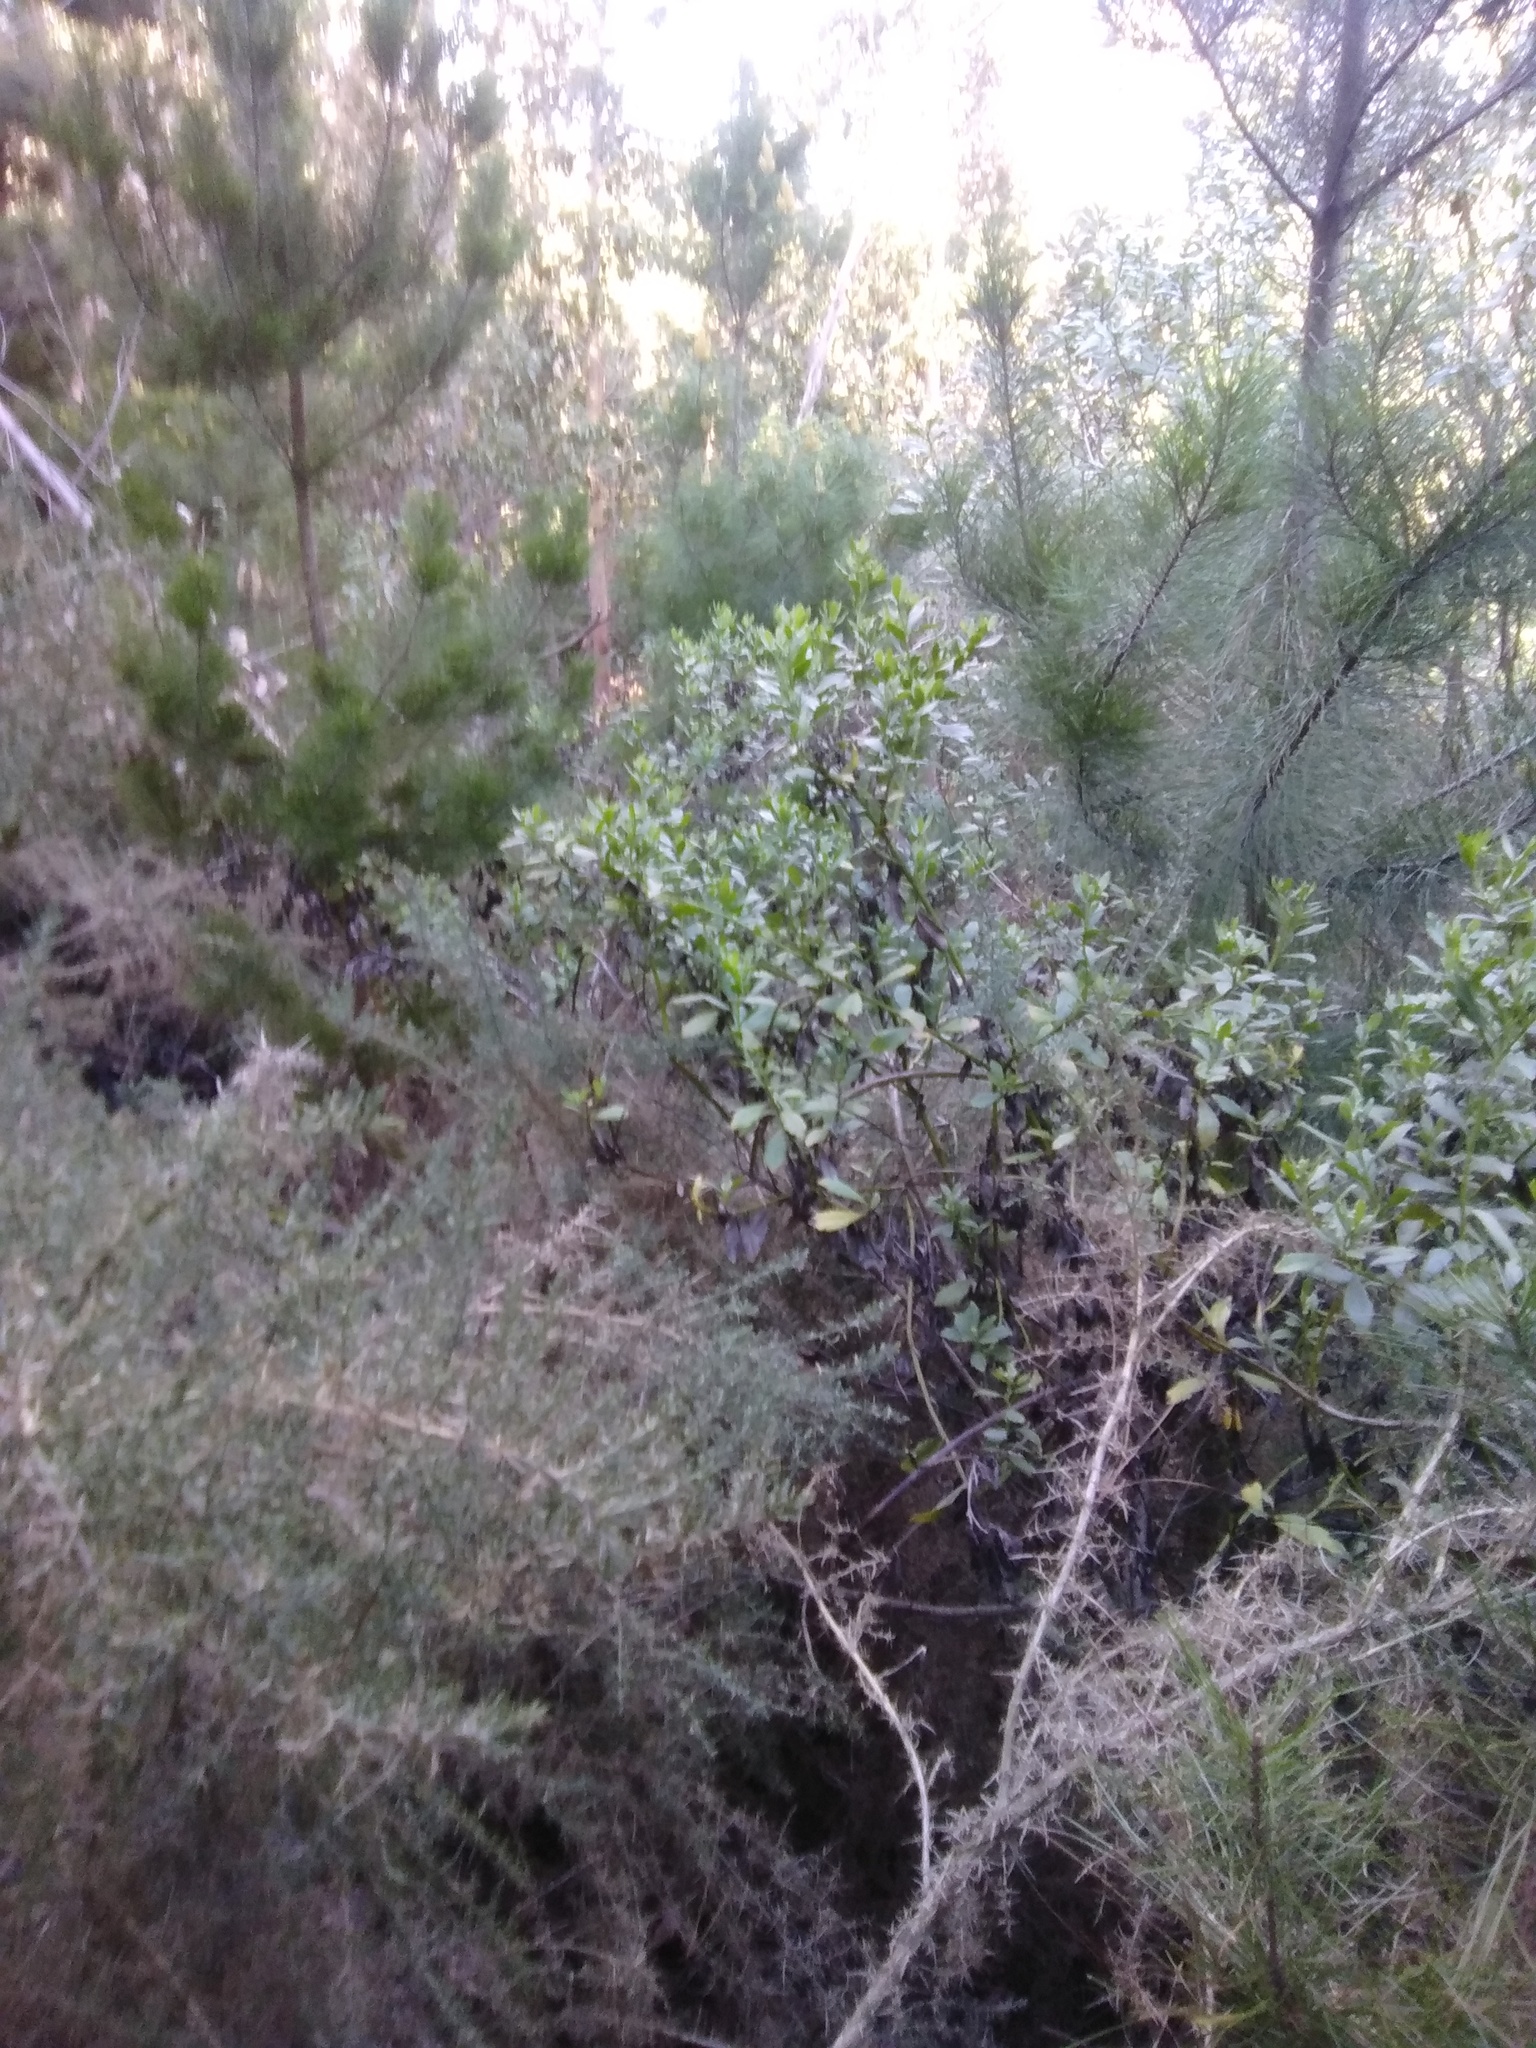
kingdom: Plantae
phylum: Tracheophyta
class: Magnoliopsida
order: Asterales
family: Asteraceae
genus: Osteospermum
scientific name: Osteospermum moniliferum
